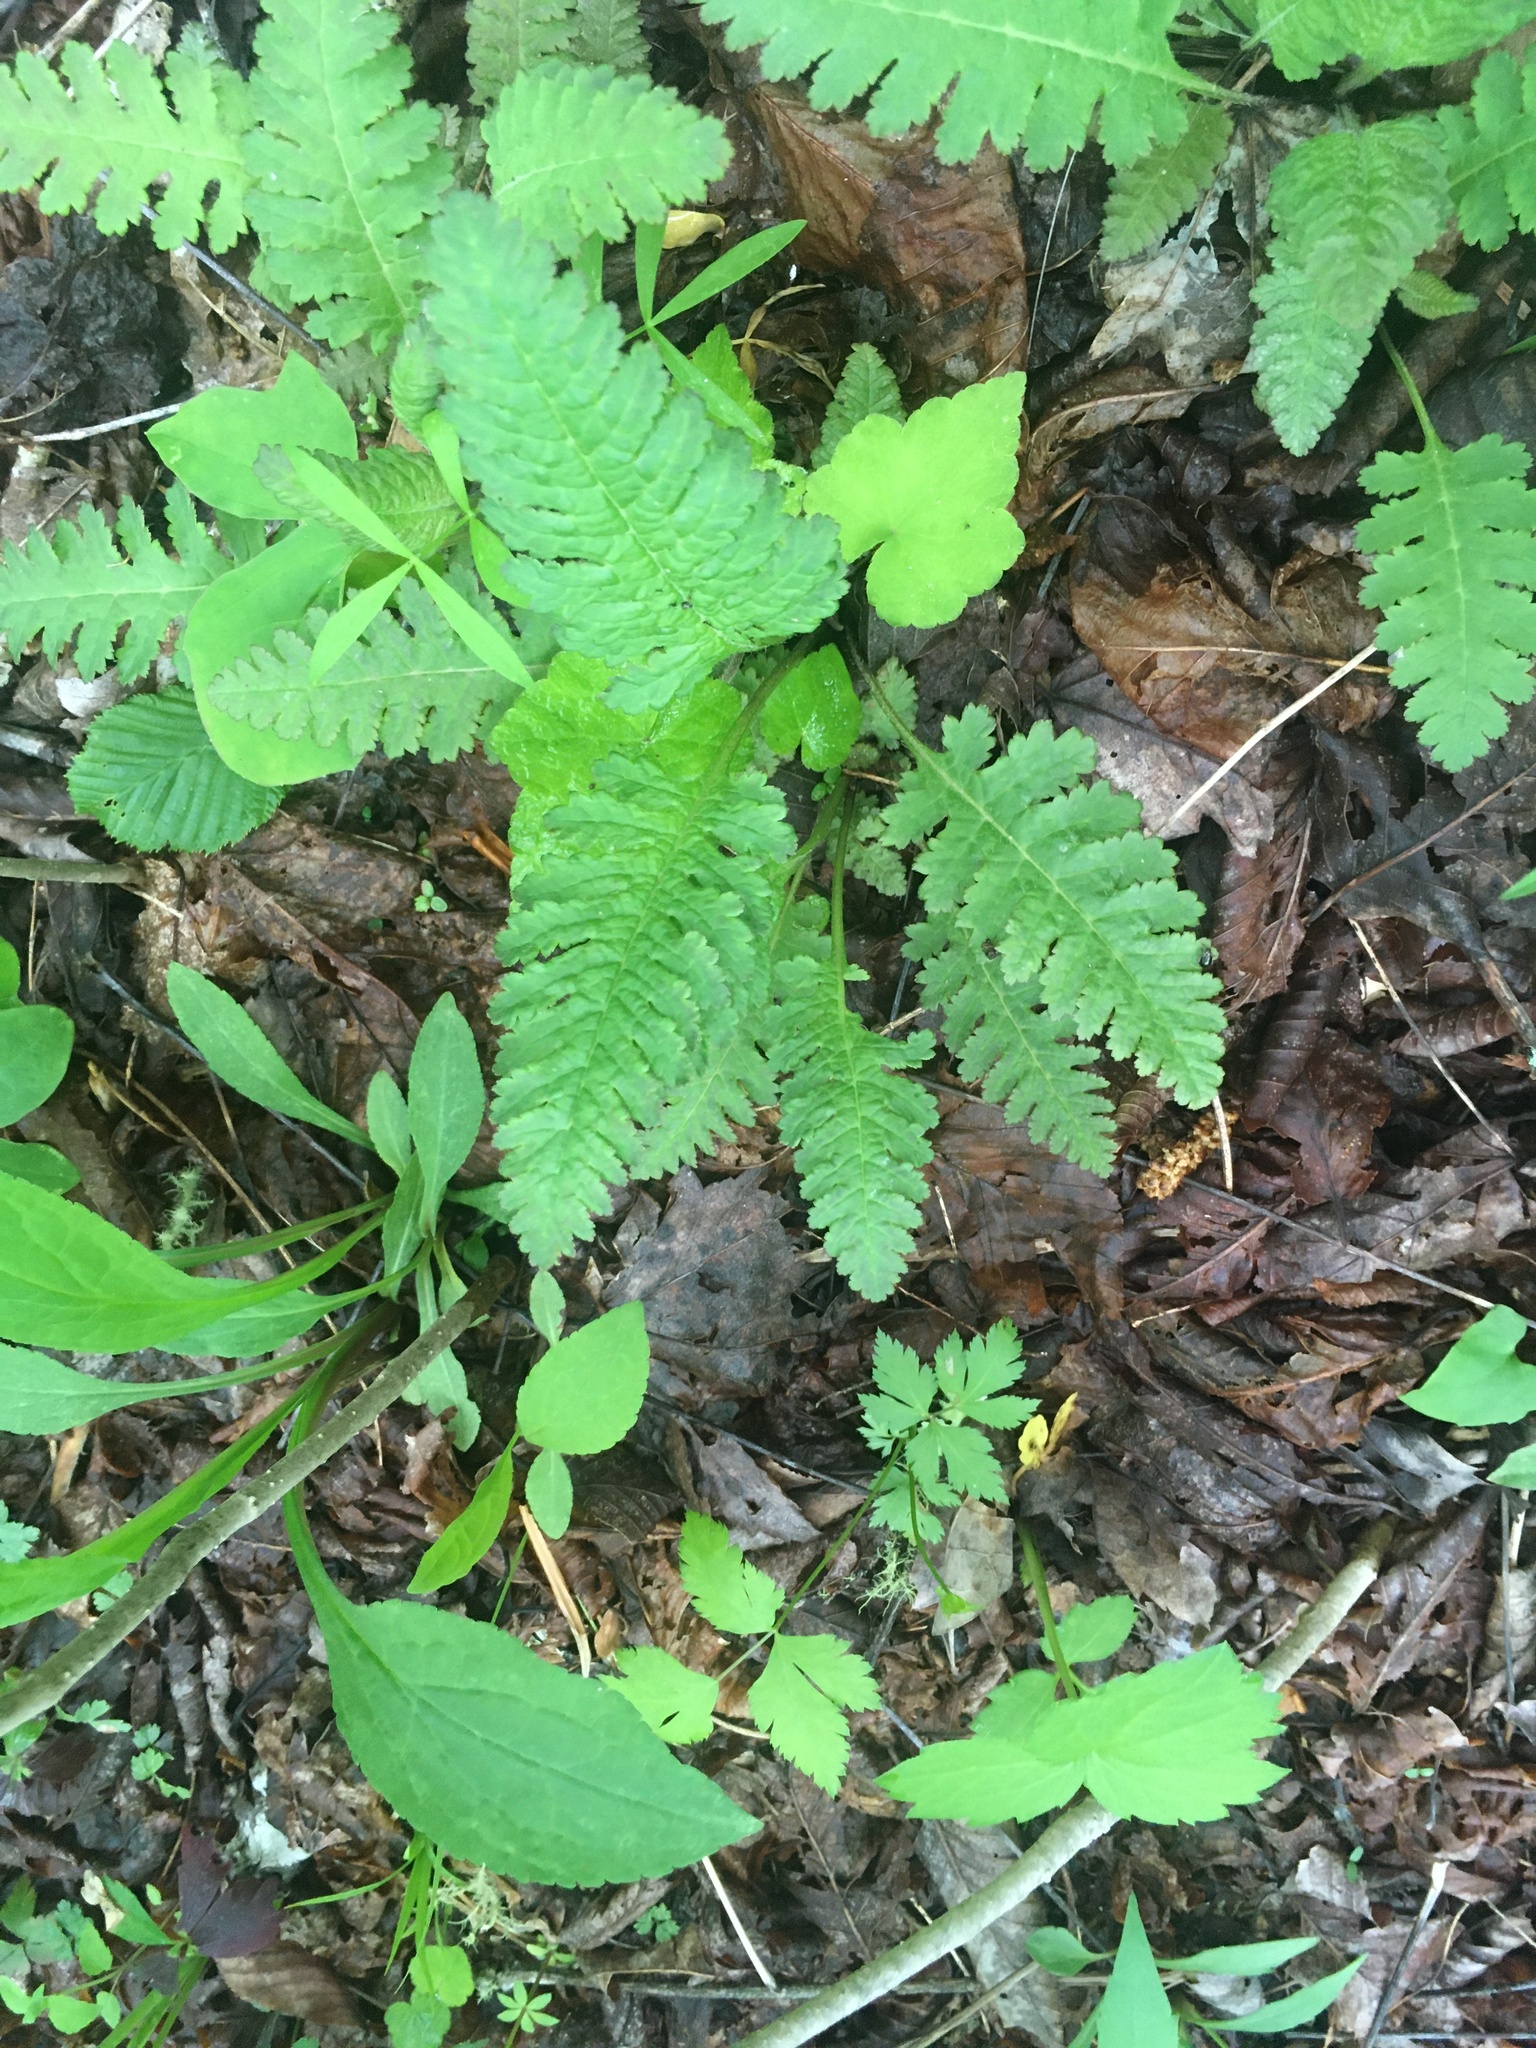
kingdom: Plantae
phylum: Tracheophyta
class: Magnoliopsida
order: Lamiales
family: Orobanchaceae
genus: Pedicularis
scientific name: Pedicularis canadensis
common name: Early lousewort
